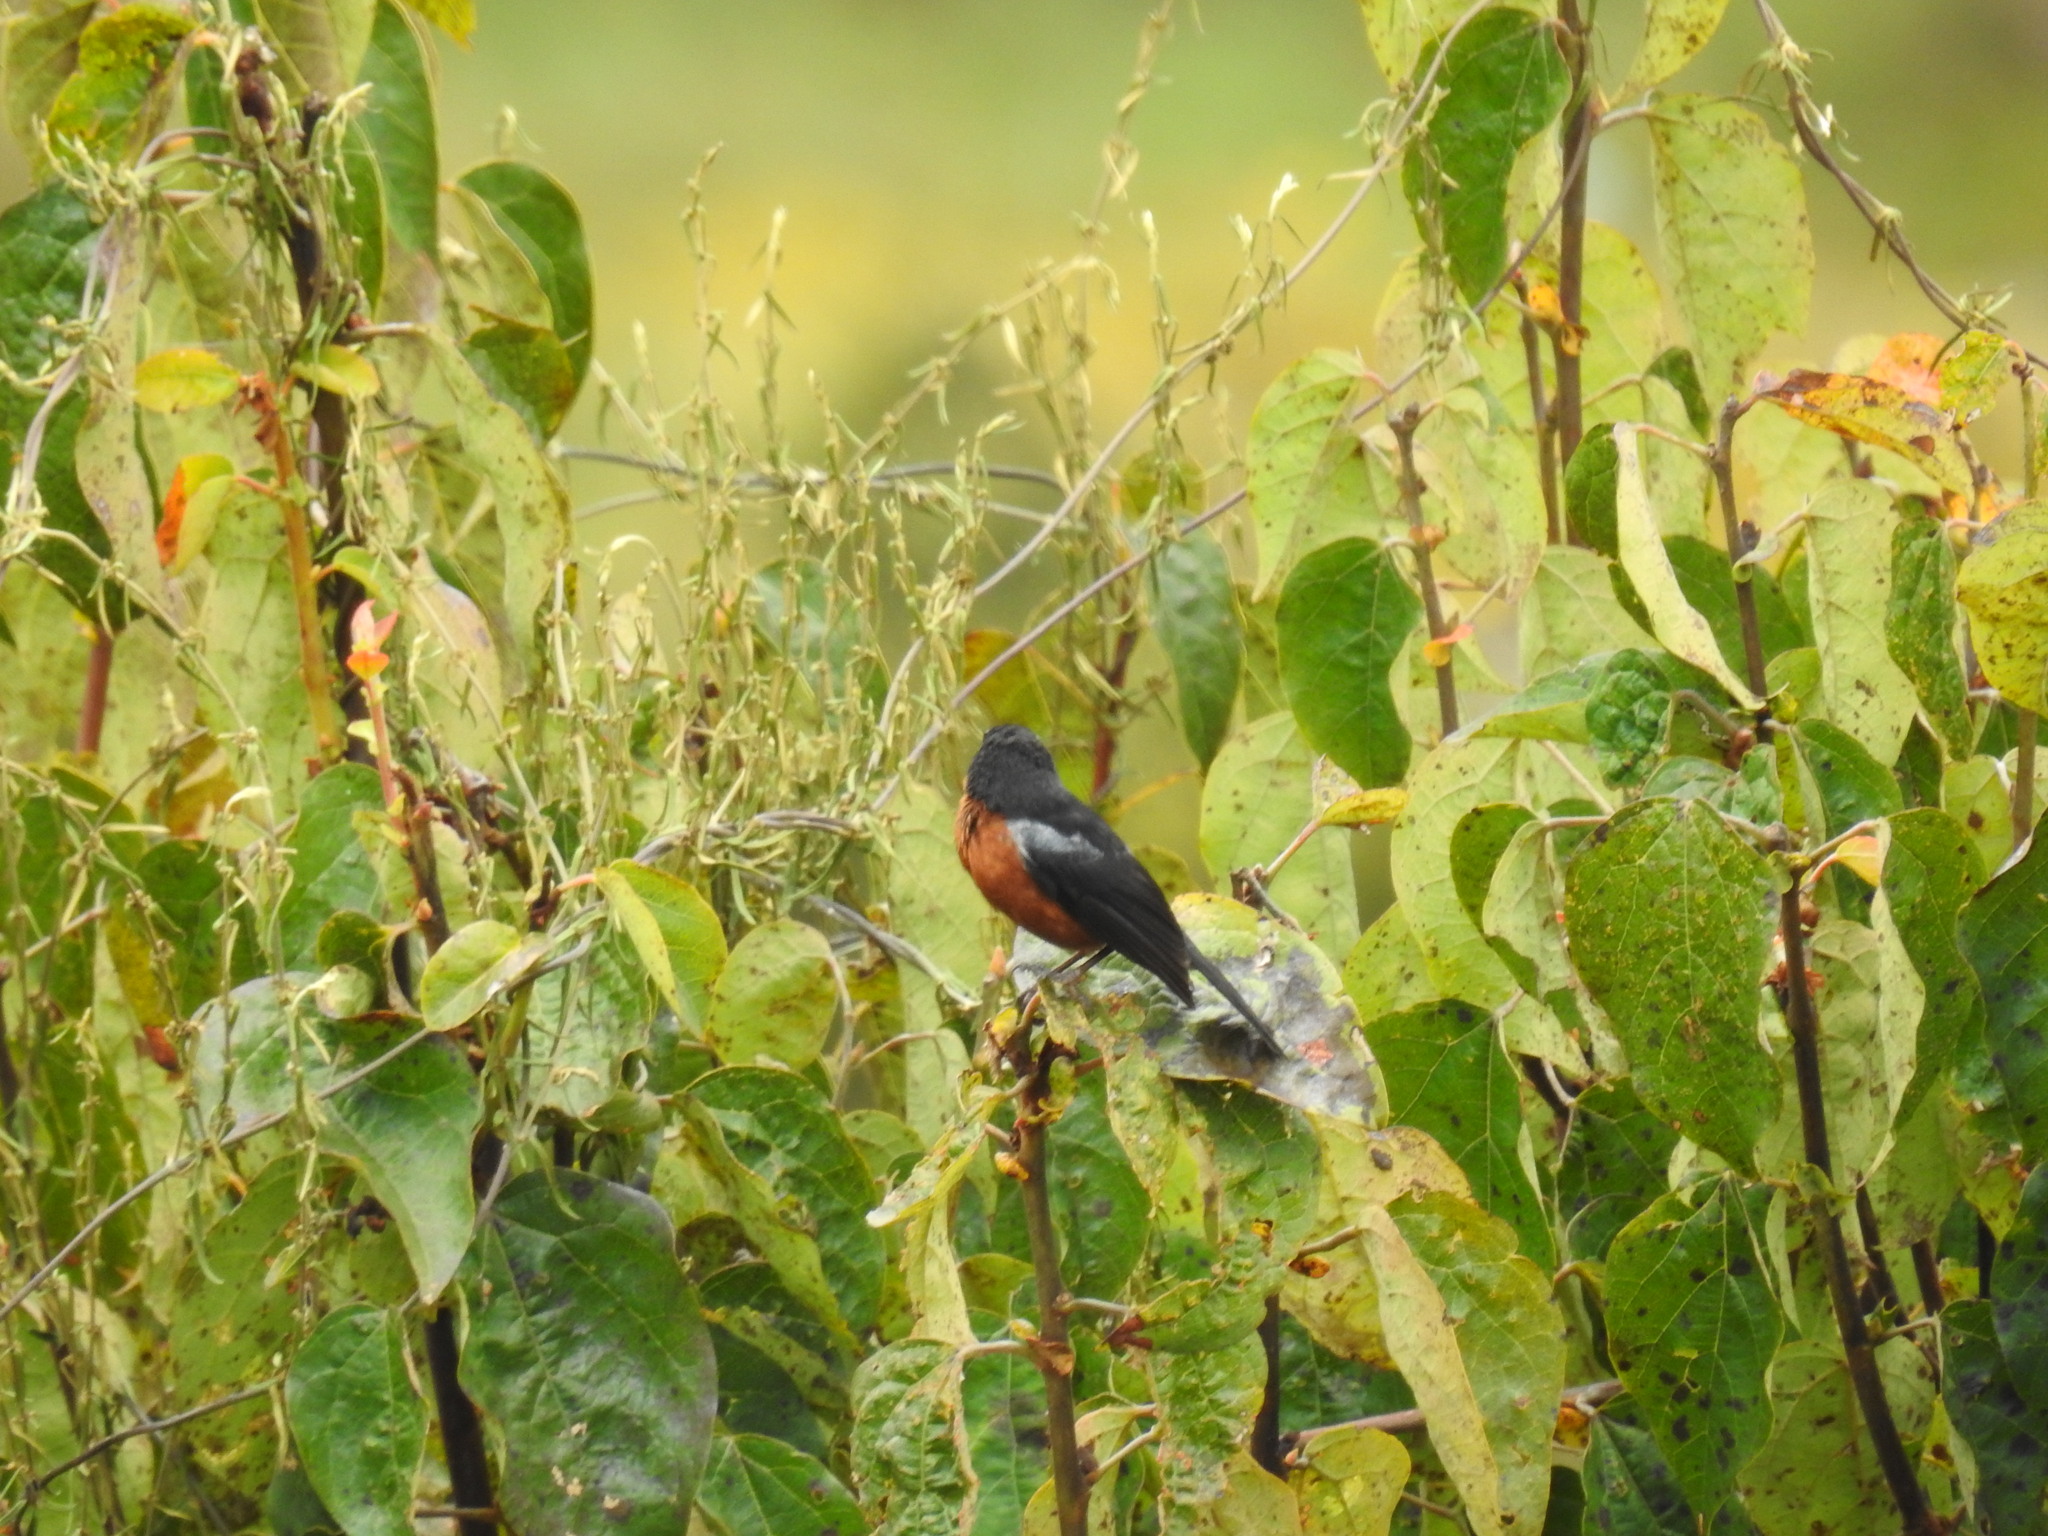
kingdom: Animalia
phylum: Chordata
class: Aves
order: Passeriformes
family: Thraupidae
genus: Diglossa
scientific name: Diglossa brunneiventris
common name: Black-throated flowerpiercer
